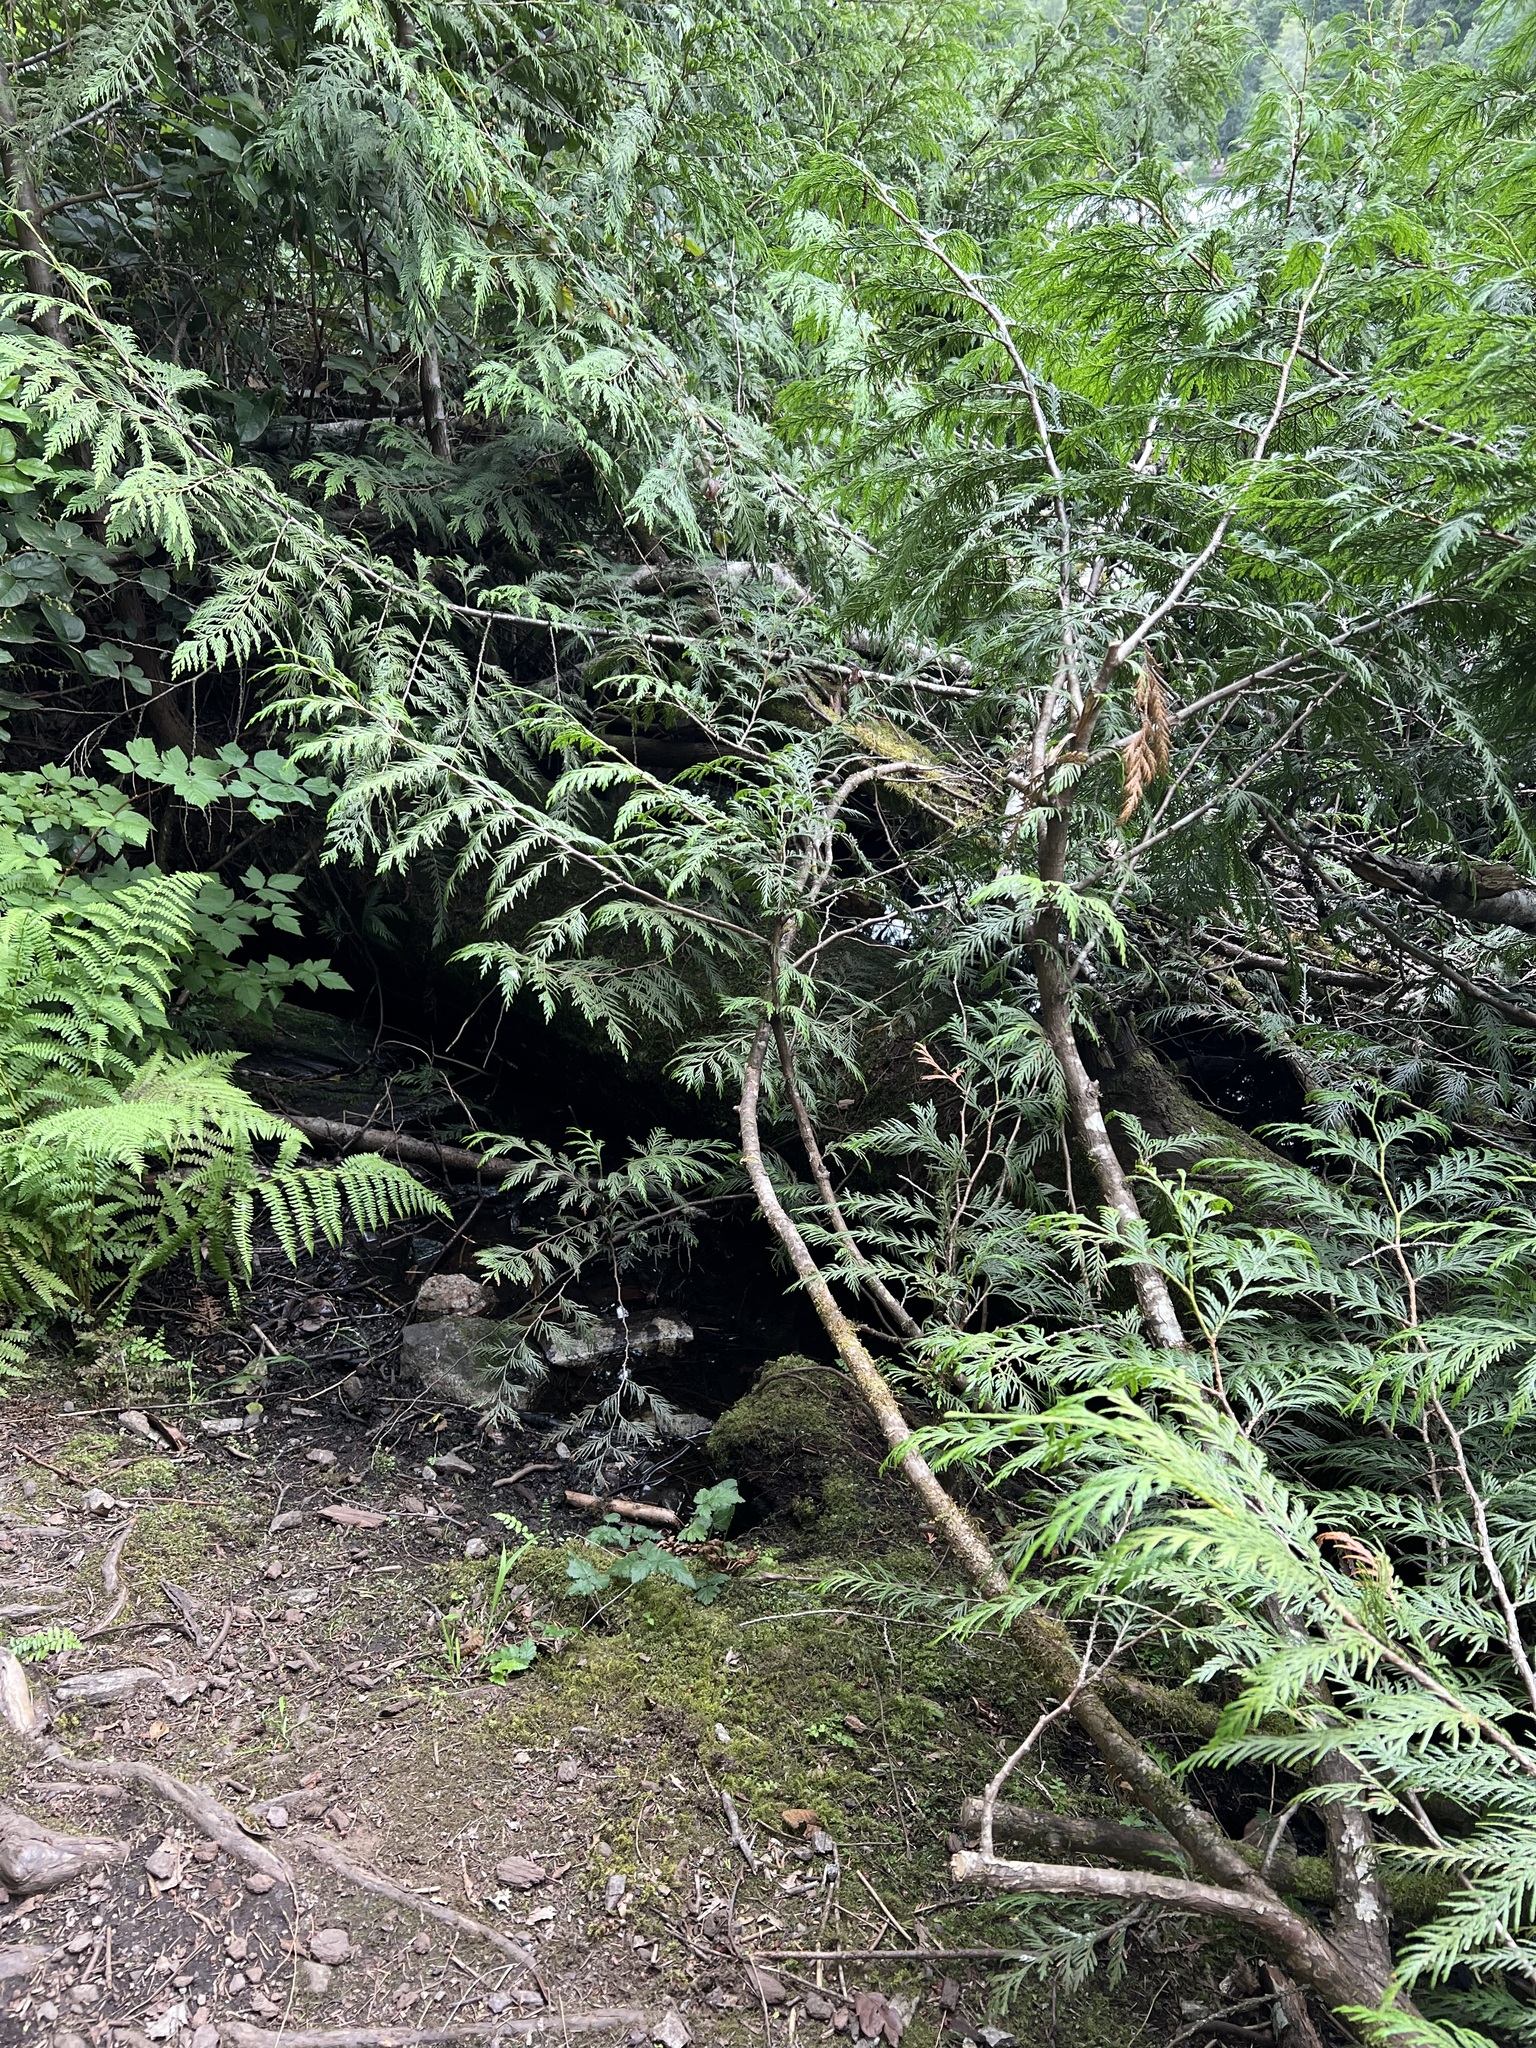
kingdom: Animalia
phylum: Chordata
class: Aves
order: Passeriformes
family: Paridae
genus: Poecile
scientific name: Poecile rufescens
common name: Chestnut-backed chickadee
